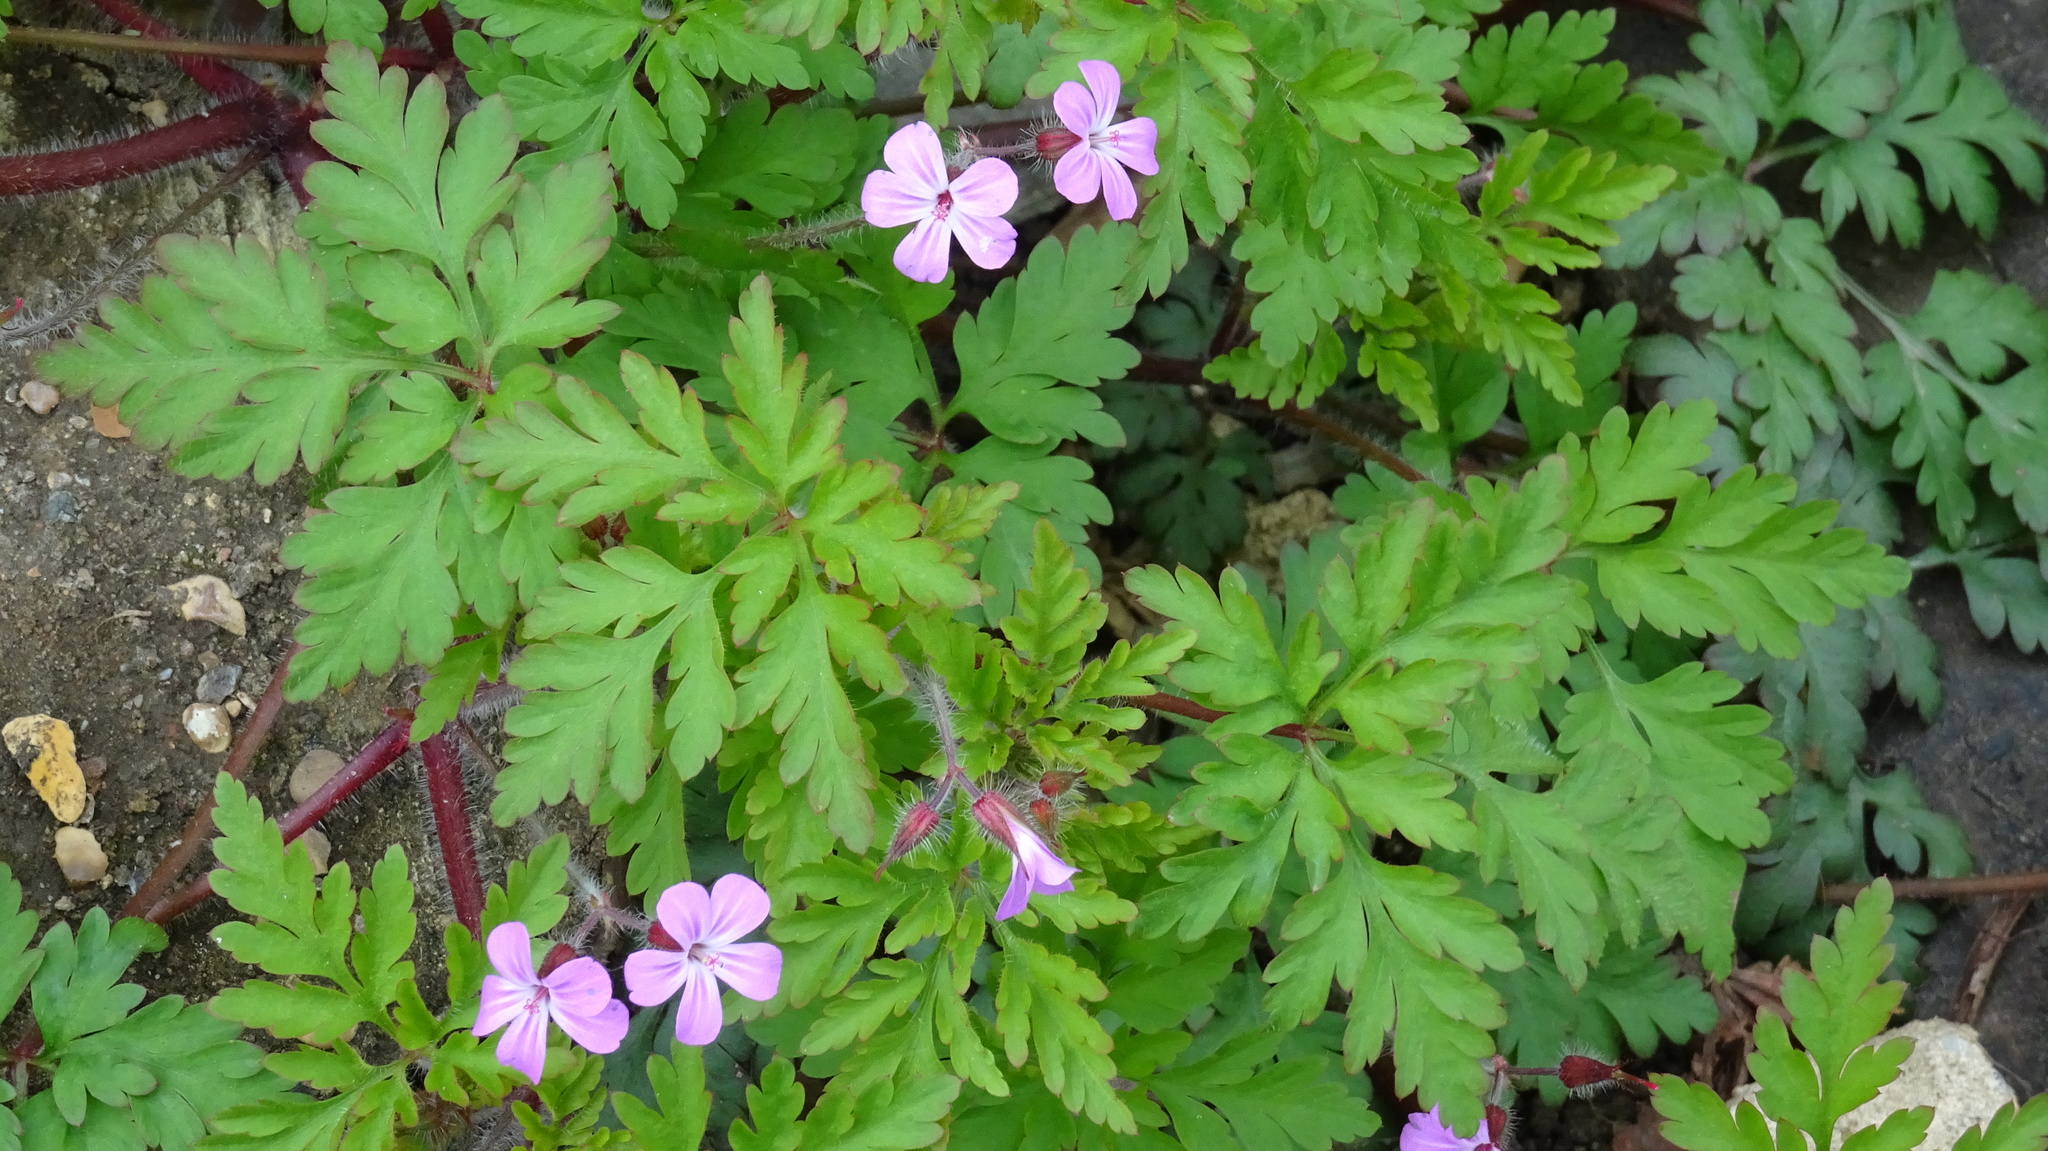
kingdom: Plantae
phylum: Tracheophyta
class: Magnoliopsida
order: Geraniales
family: Geraniaceae
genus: Geranium
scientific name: Geranium robertianum
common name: Herb-robert
